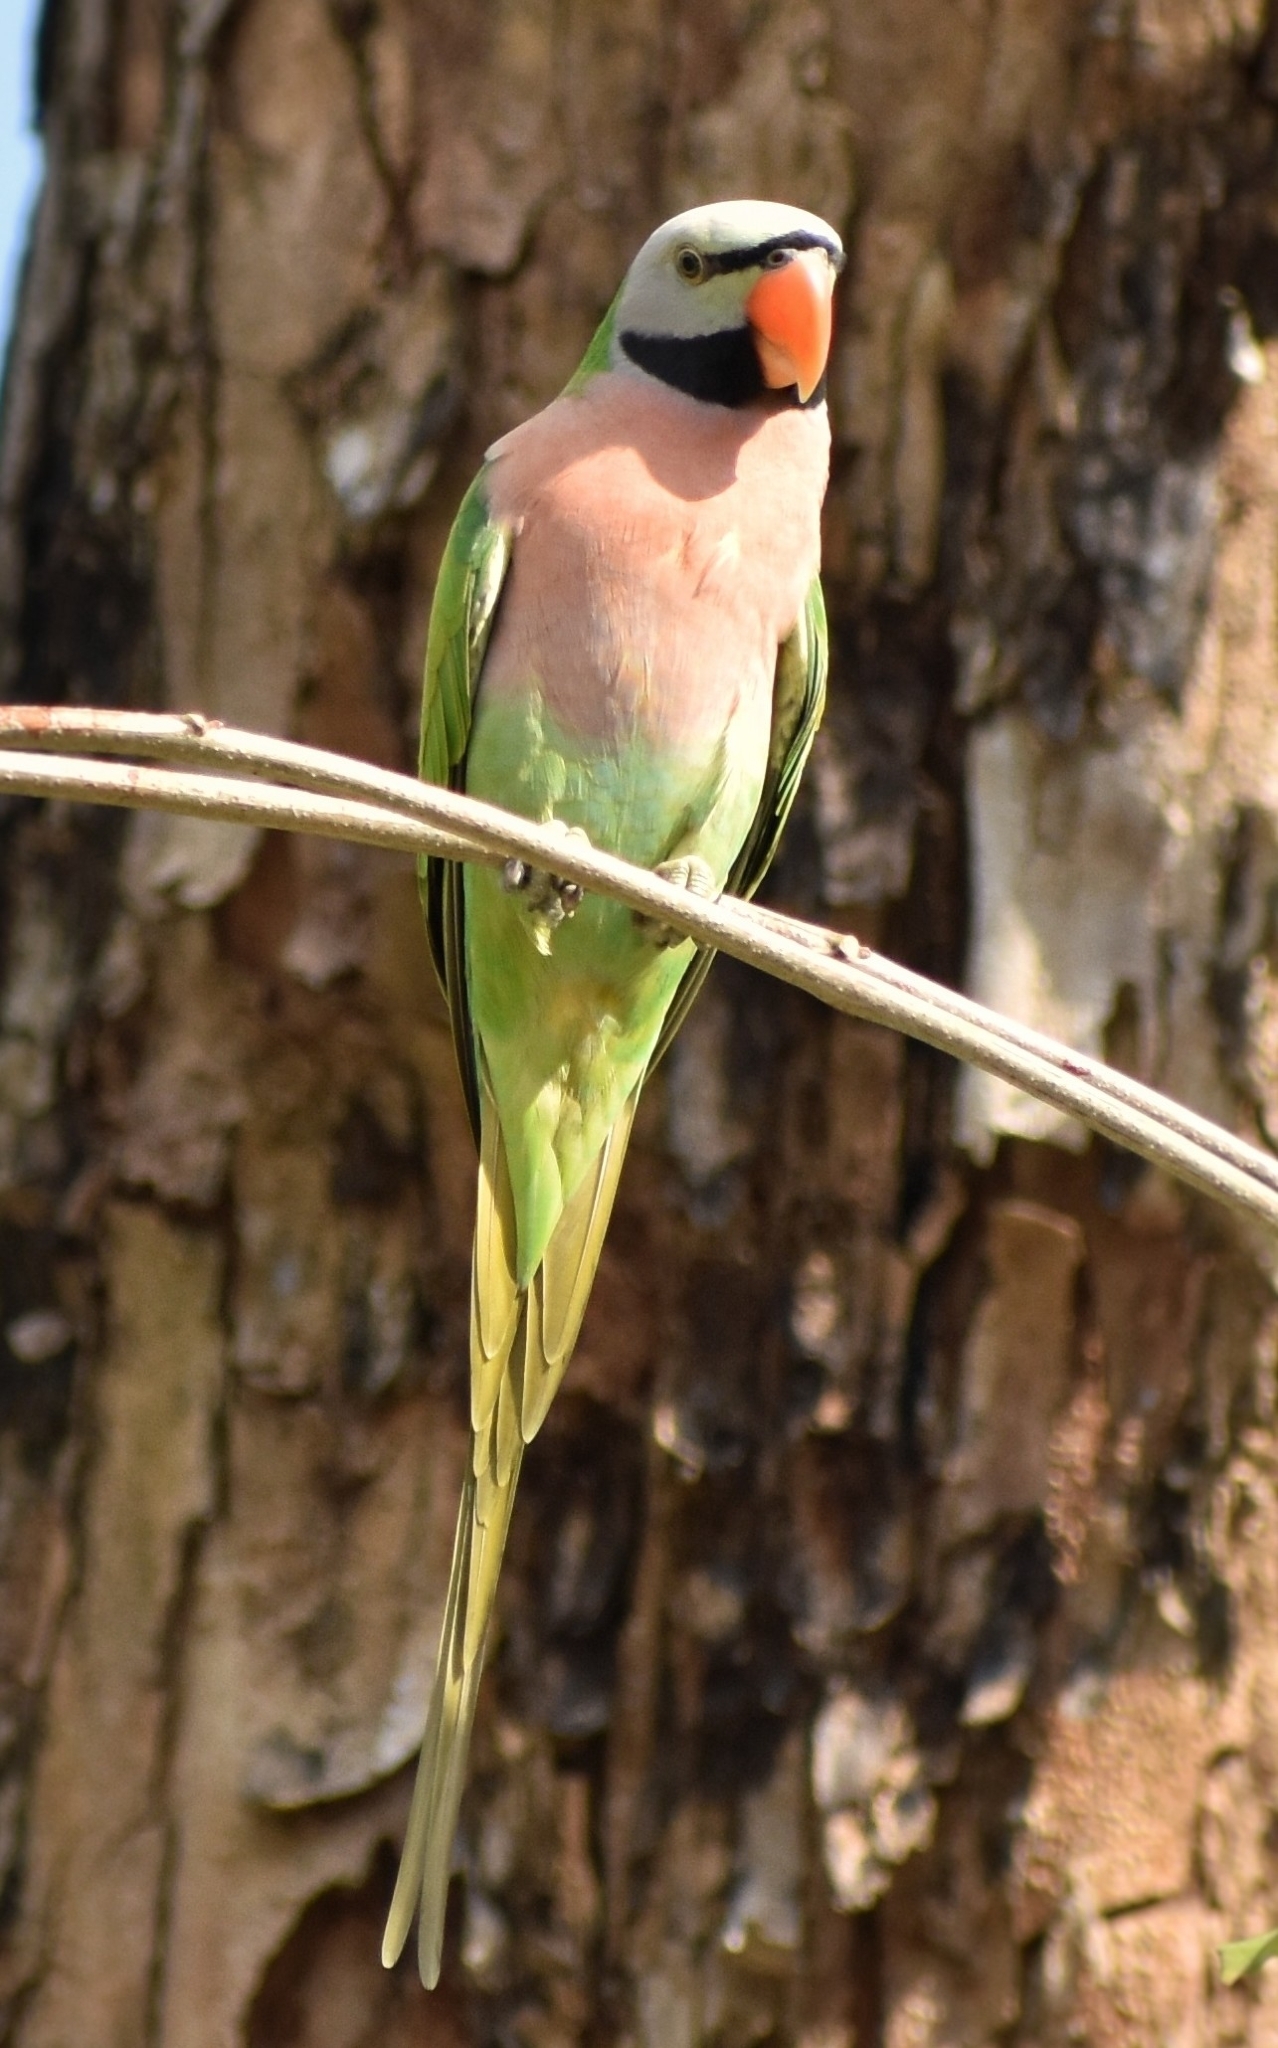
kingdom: Animalia
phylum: Chordata
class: Aves
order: Psittaciformes
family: Psittacidae
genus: Psittacula
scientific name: Psittacula alexandri
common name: Red-breasted parakeet
